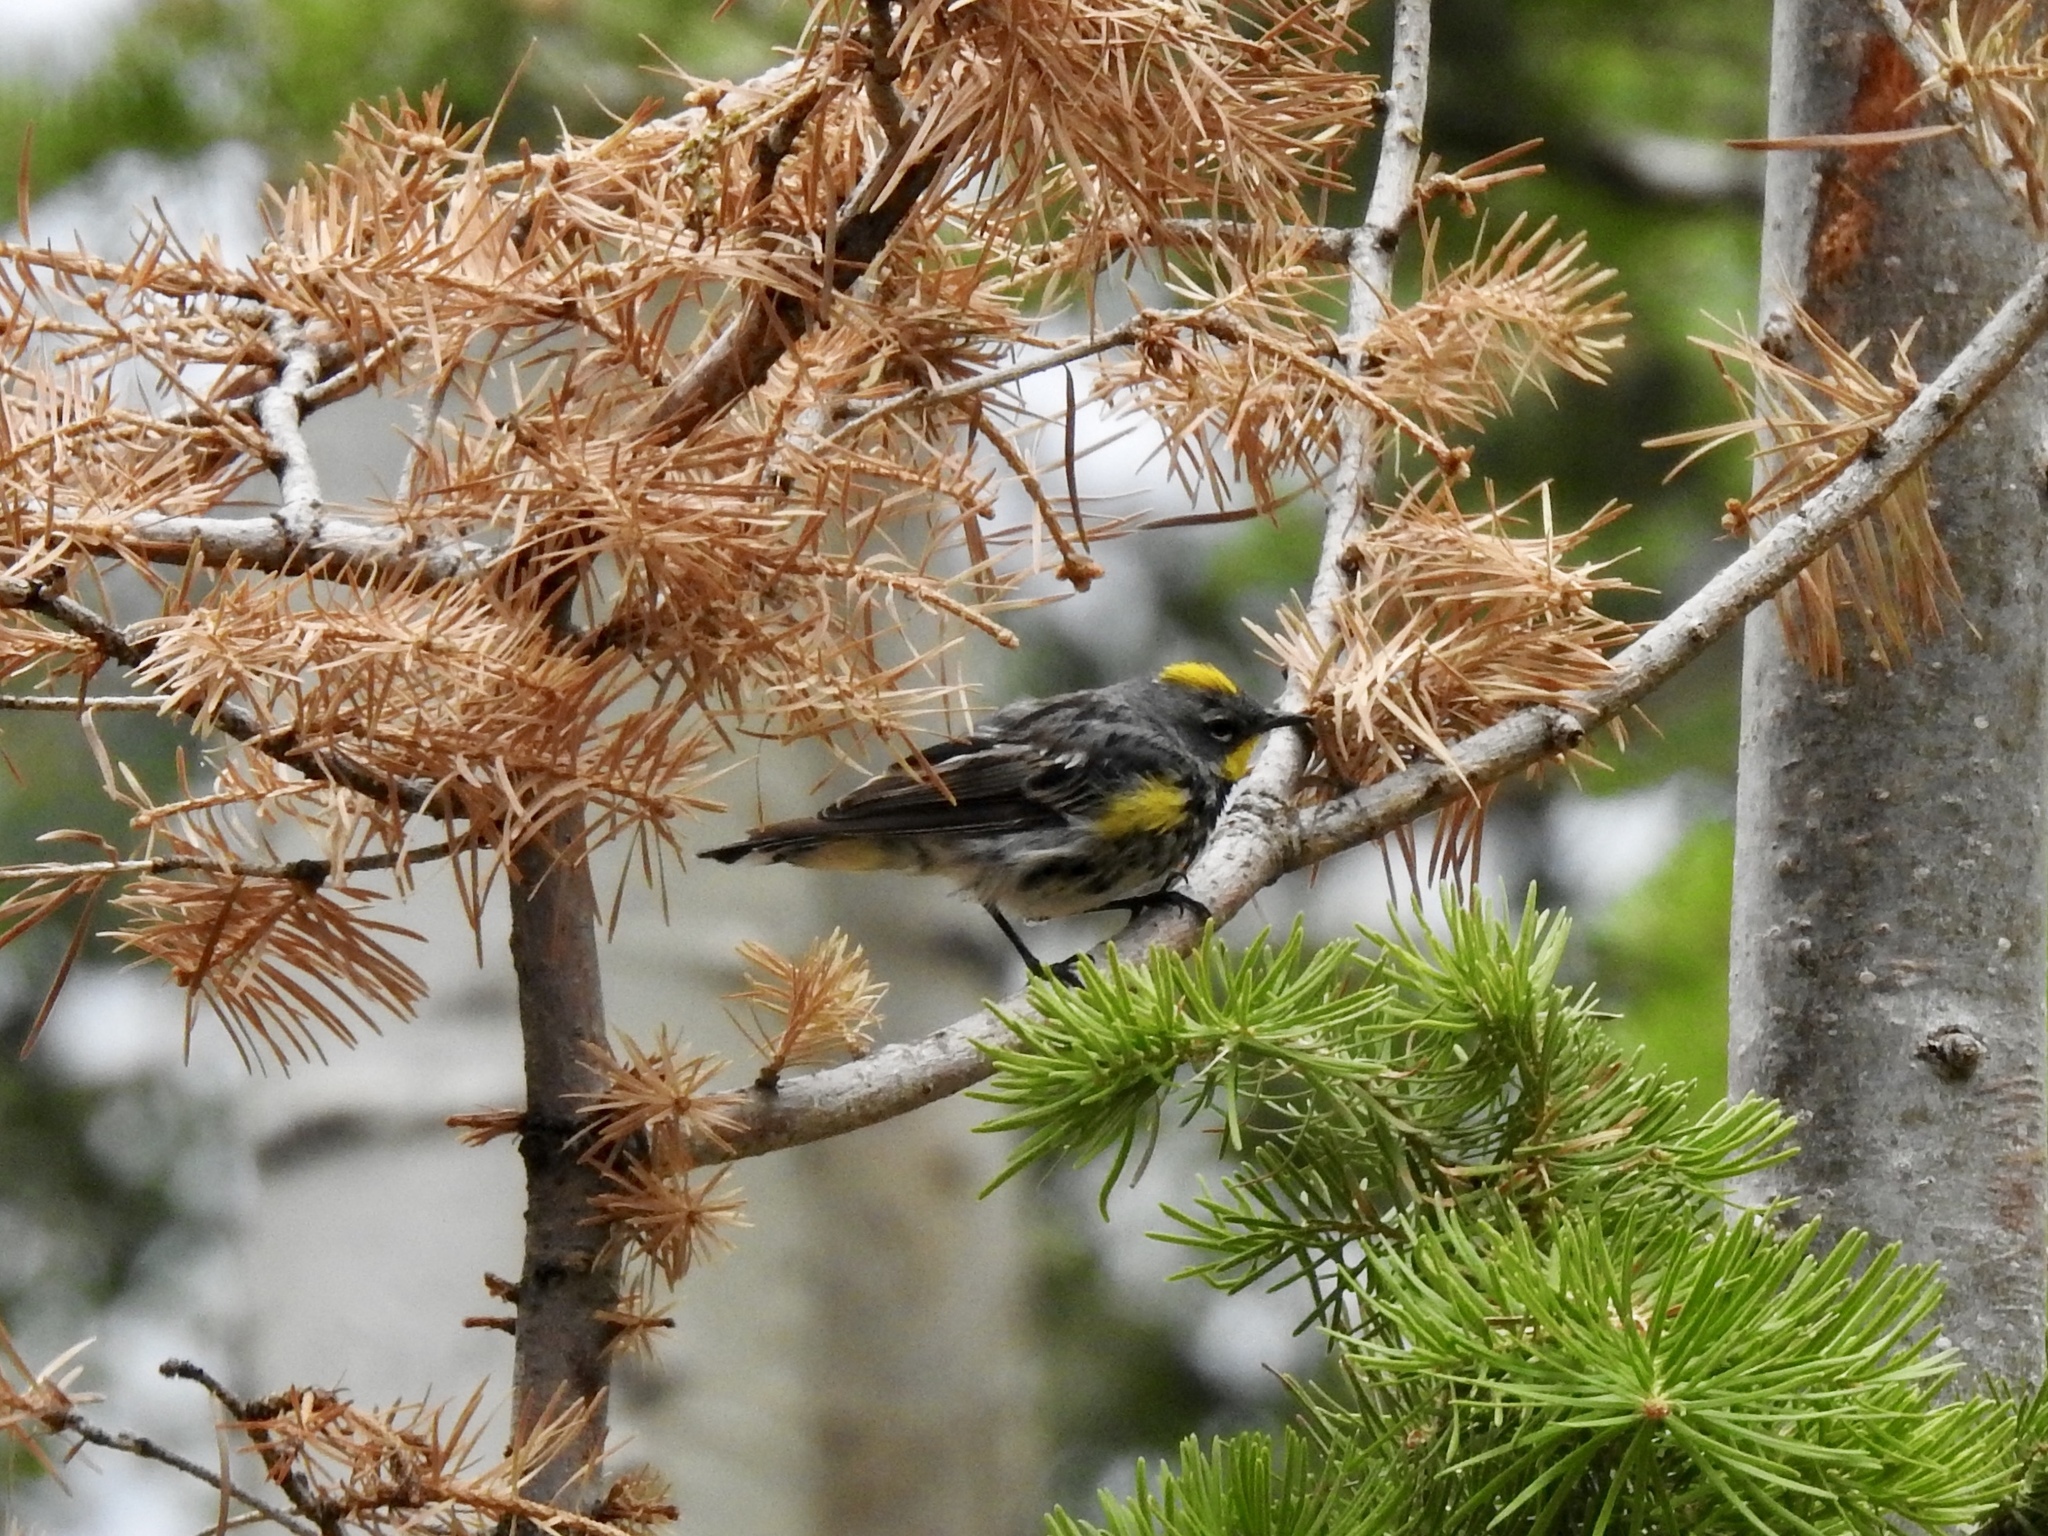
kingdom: Animalia
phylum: Chordata
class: Aves
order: Passeriformes
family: Parulidae
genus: Setophaga
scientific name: Setophaga auduboni
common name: Audubon's warbler
